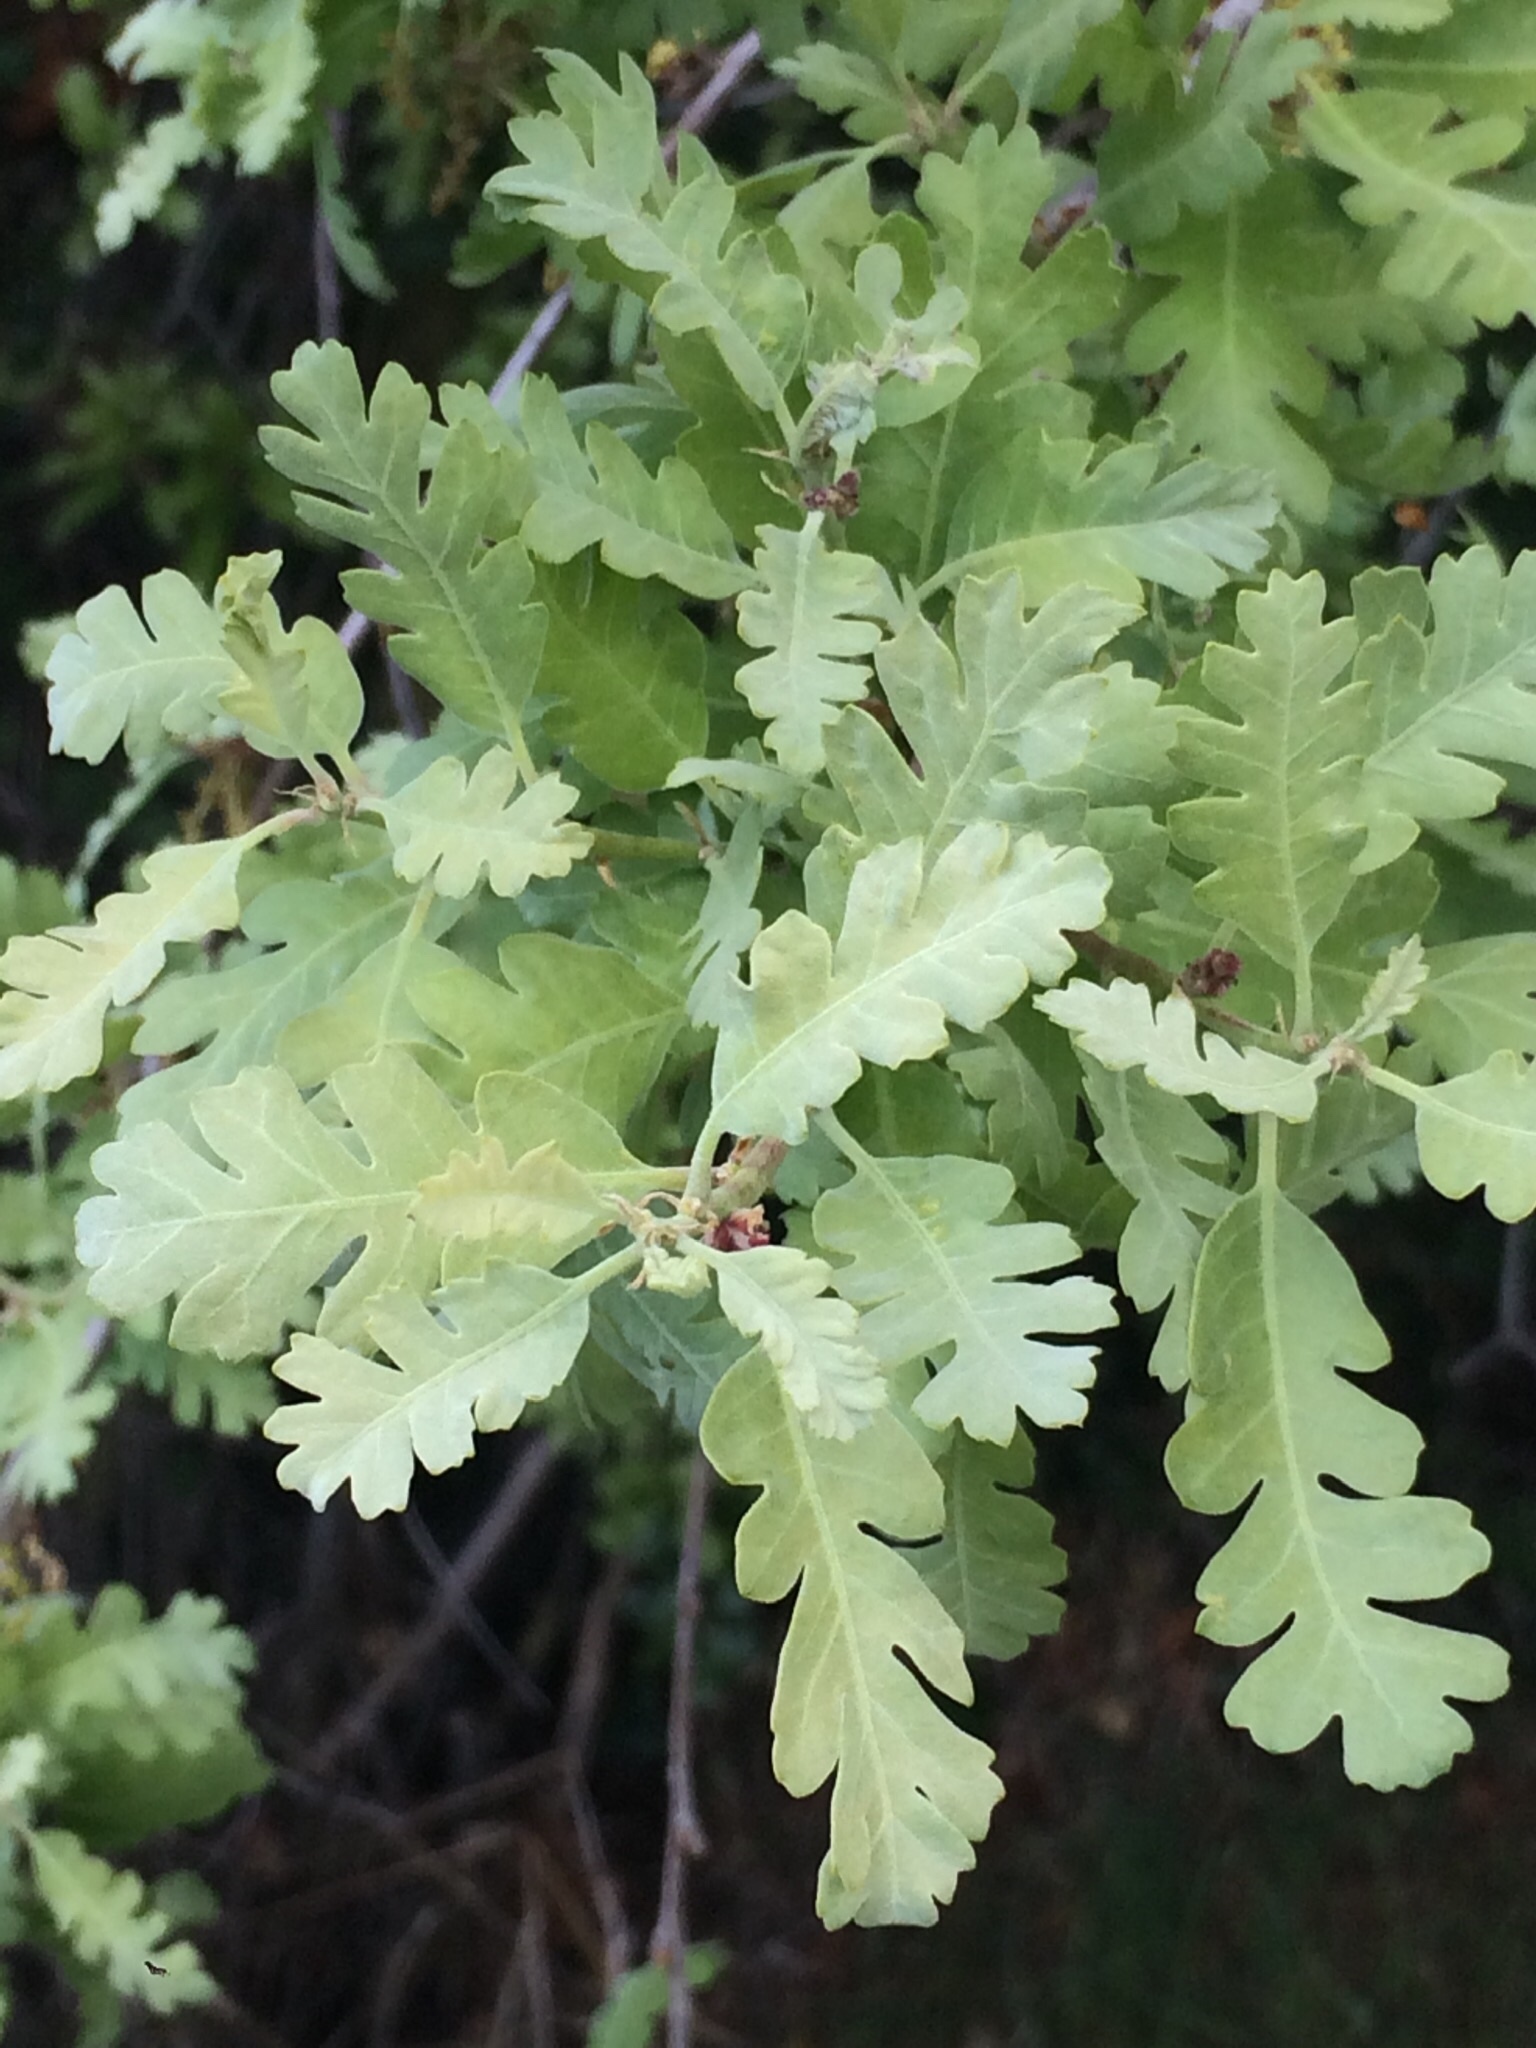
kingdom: Plantae
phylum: Tracheophyta
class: Magnoliopsida
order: Fagales
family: Fagaceae
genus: Quercus
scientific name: Quercus lobata
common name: Valley oak
